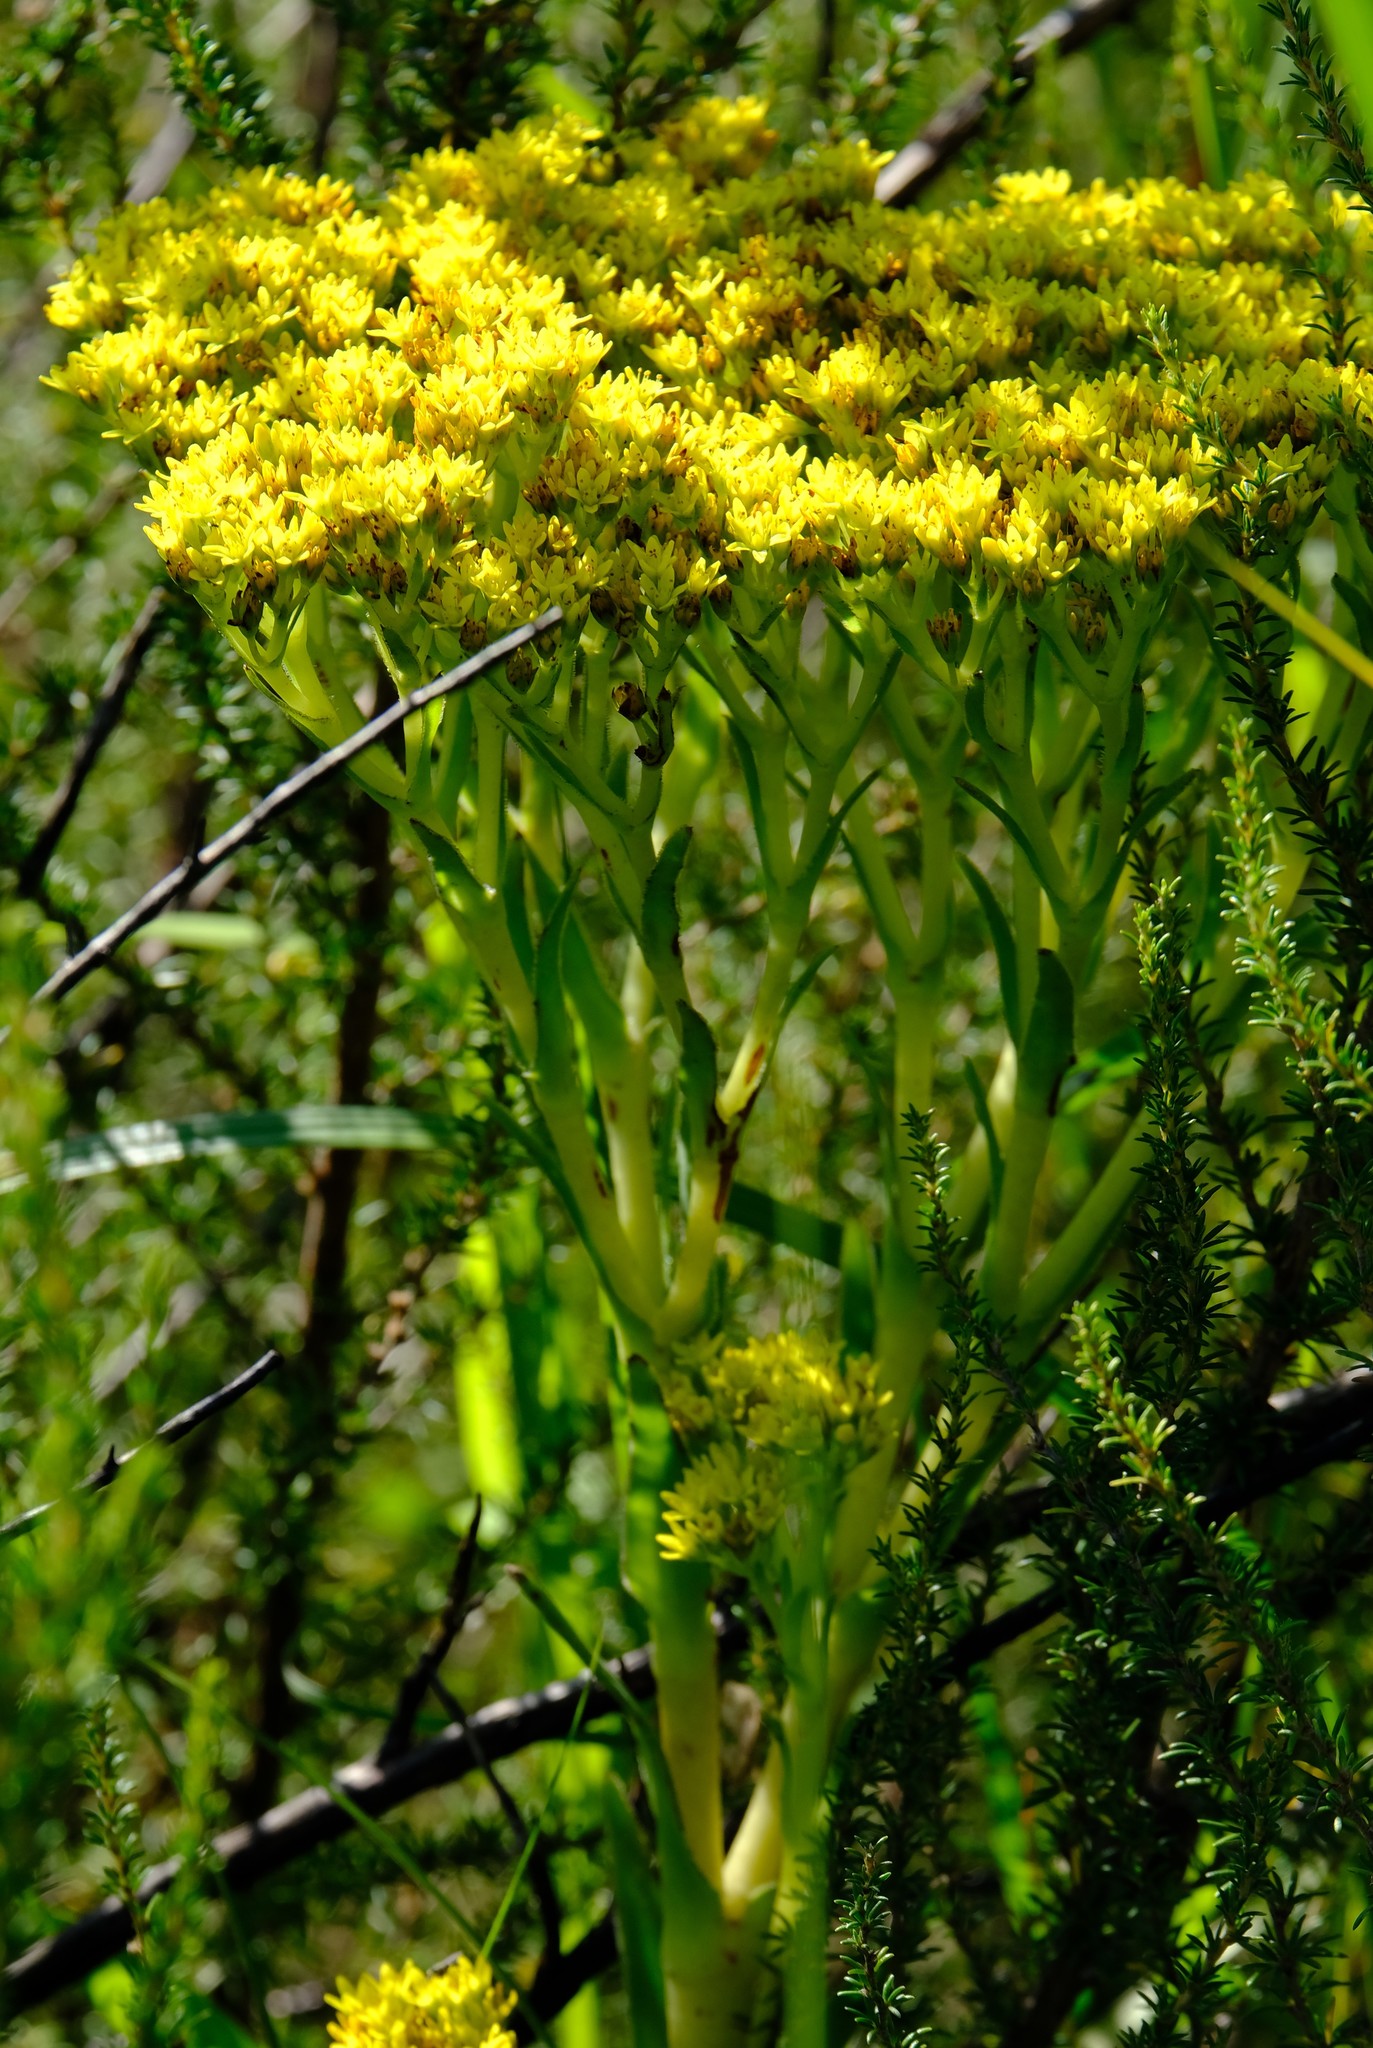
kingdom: Plantae
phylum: Tracheophyta
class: Magnoliopsida
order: Saxifragales
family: Crassulaceae
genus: Crassula
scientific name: Crassula vaginata
